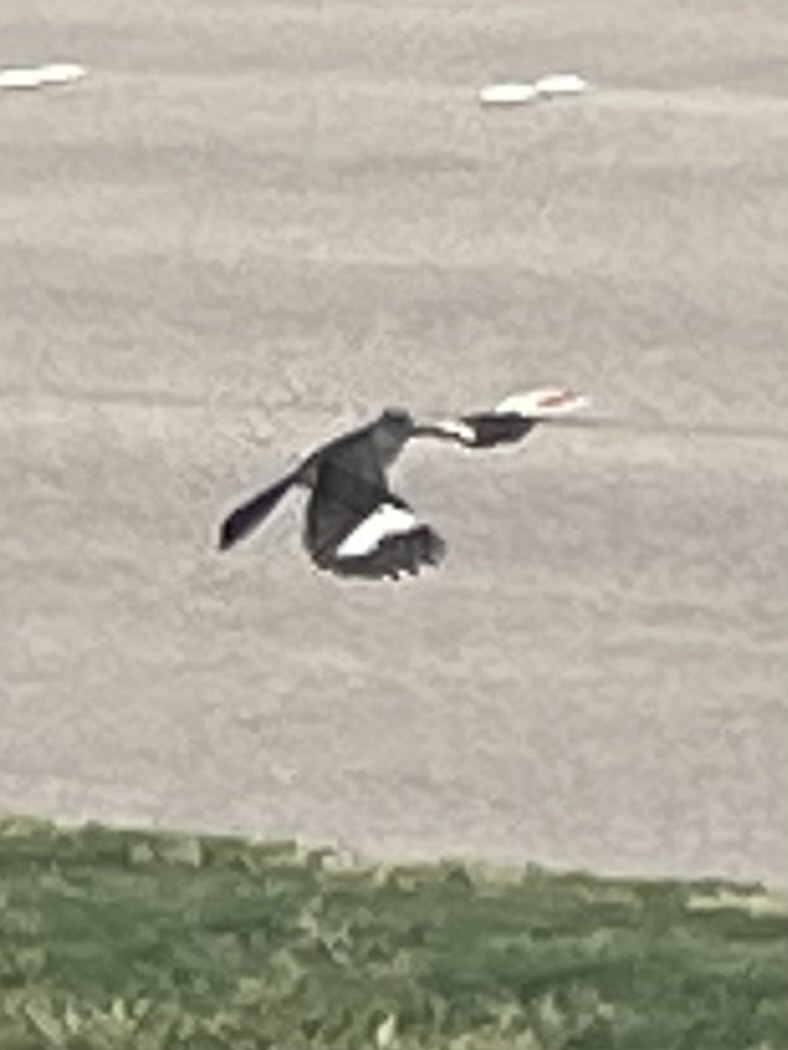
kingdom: Animalia
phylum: Chordata
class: Aves
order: Passeriformes
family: Mimidae
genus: Mimus
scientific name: Mimus polyglottos
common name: Northern mockingbird
